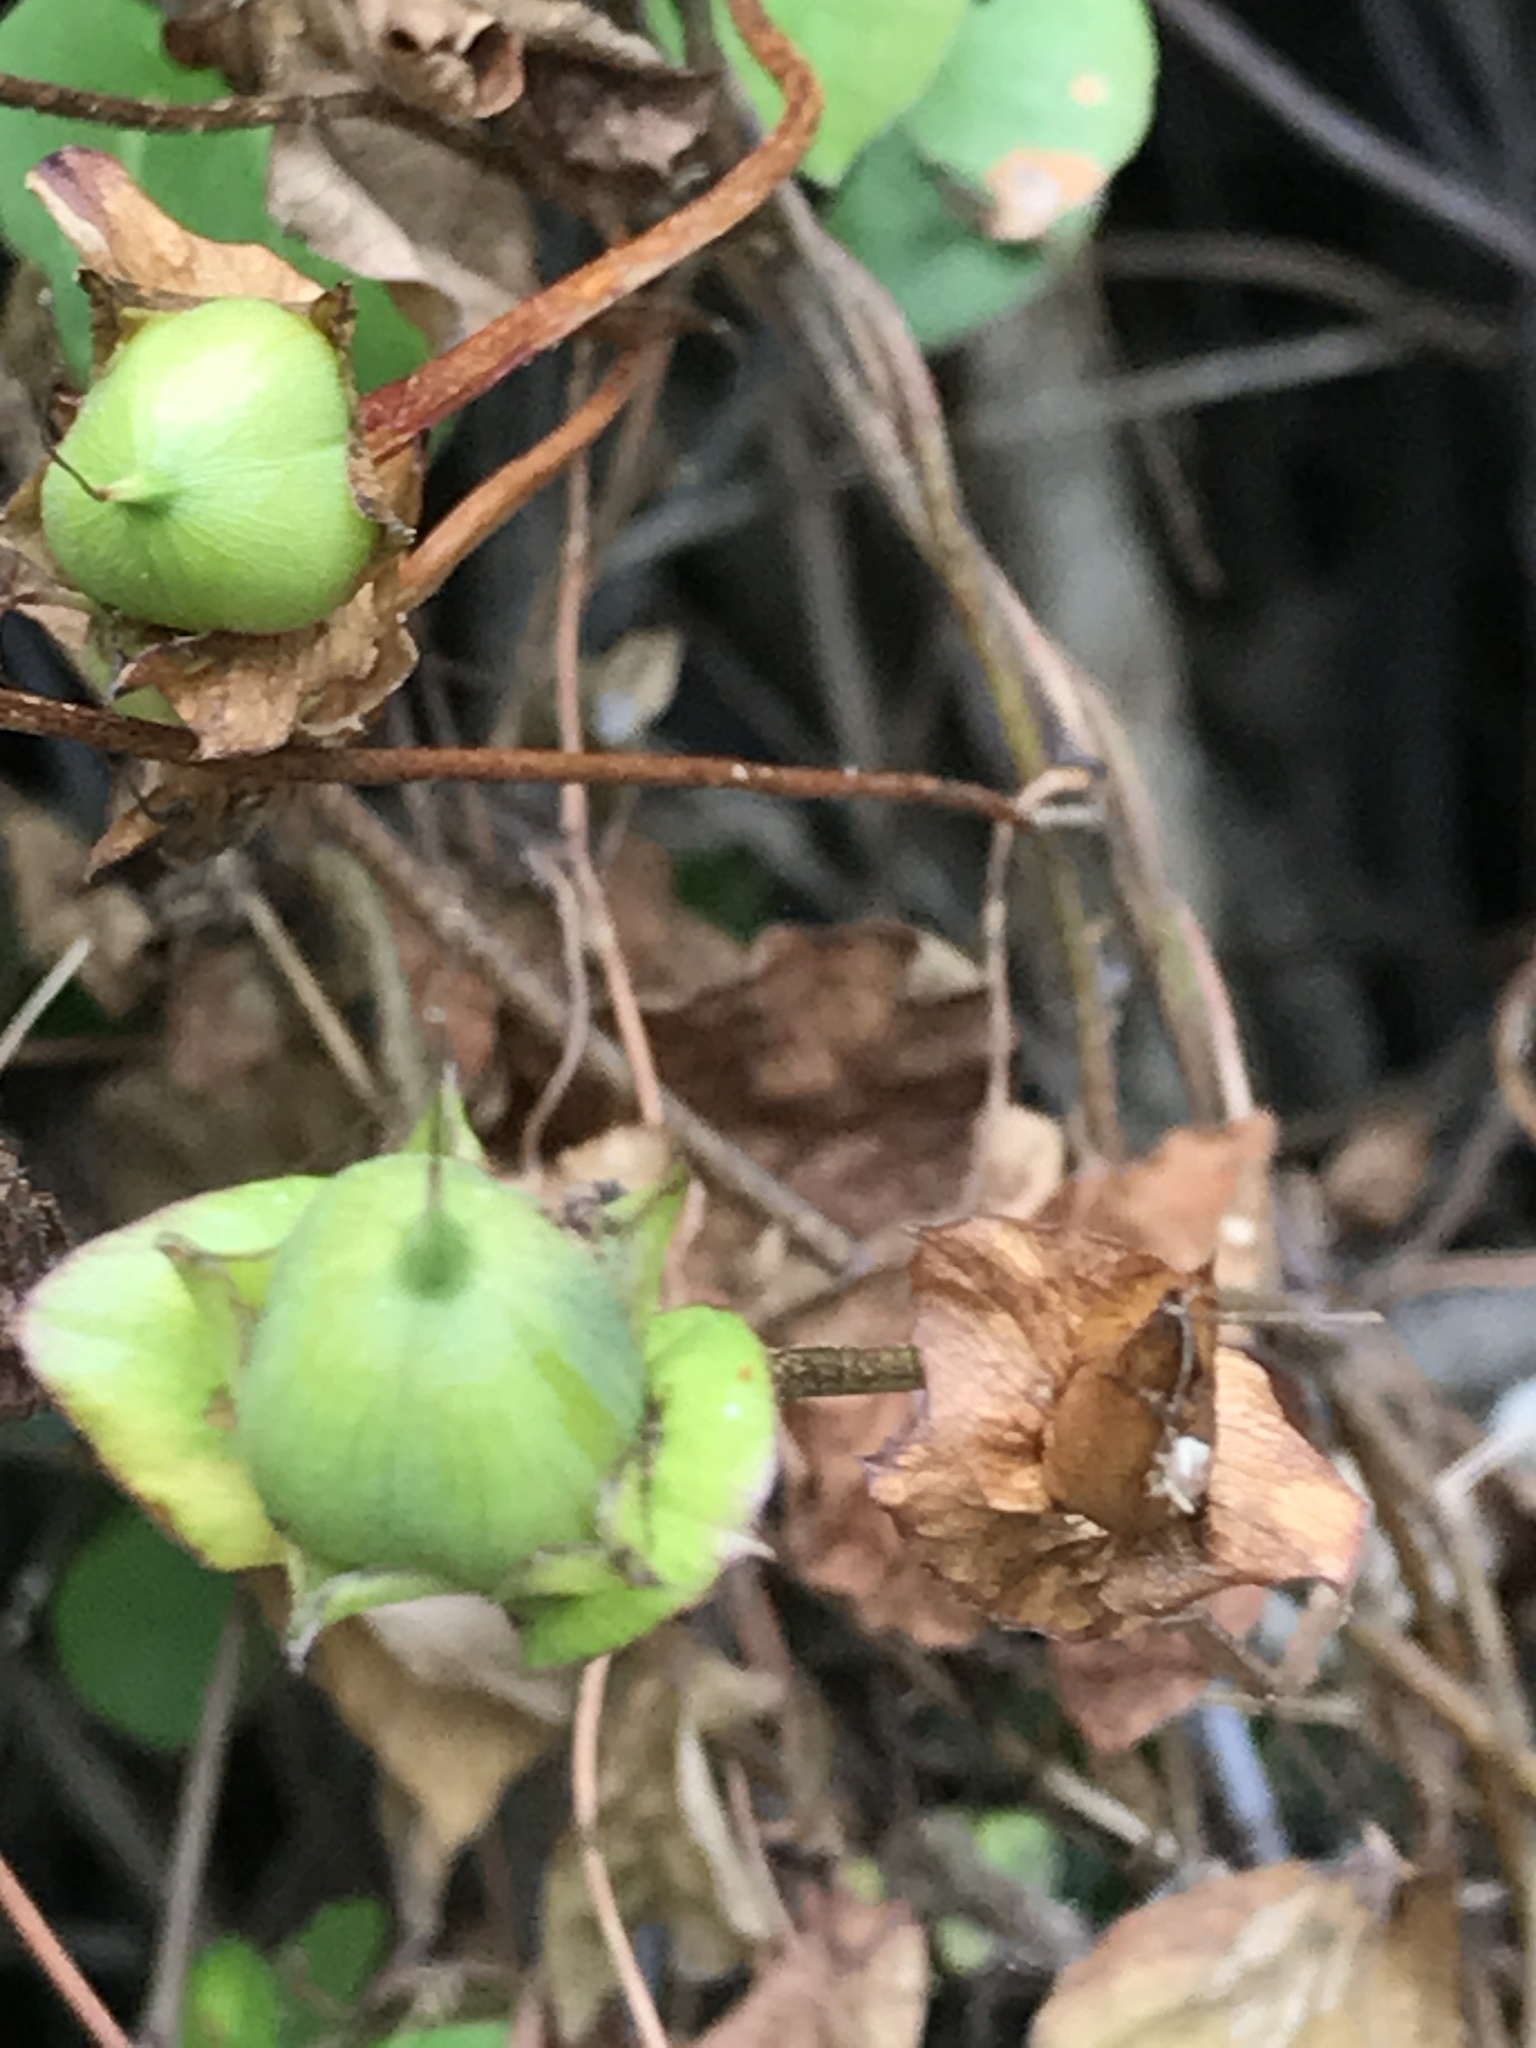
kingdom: Plantae
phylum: Tracheophyta
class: Magnoliopsida
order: Solanales
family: Convolvulaceae
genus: Calystegia
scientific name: Calystegia tuguriorum
